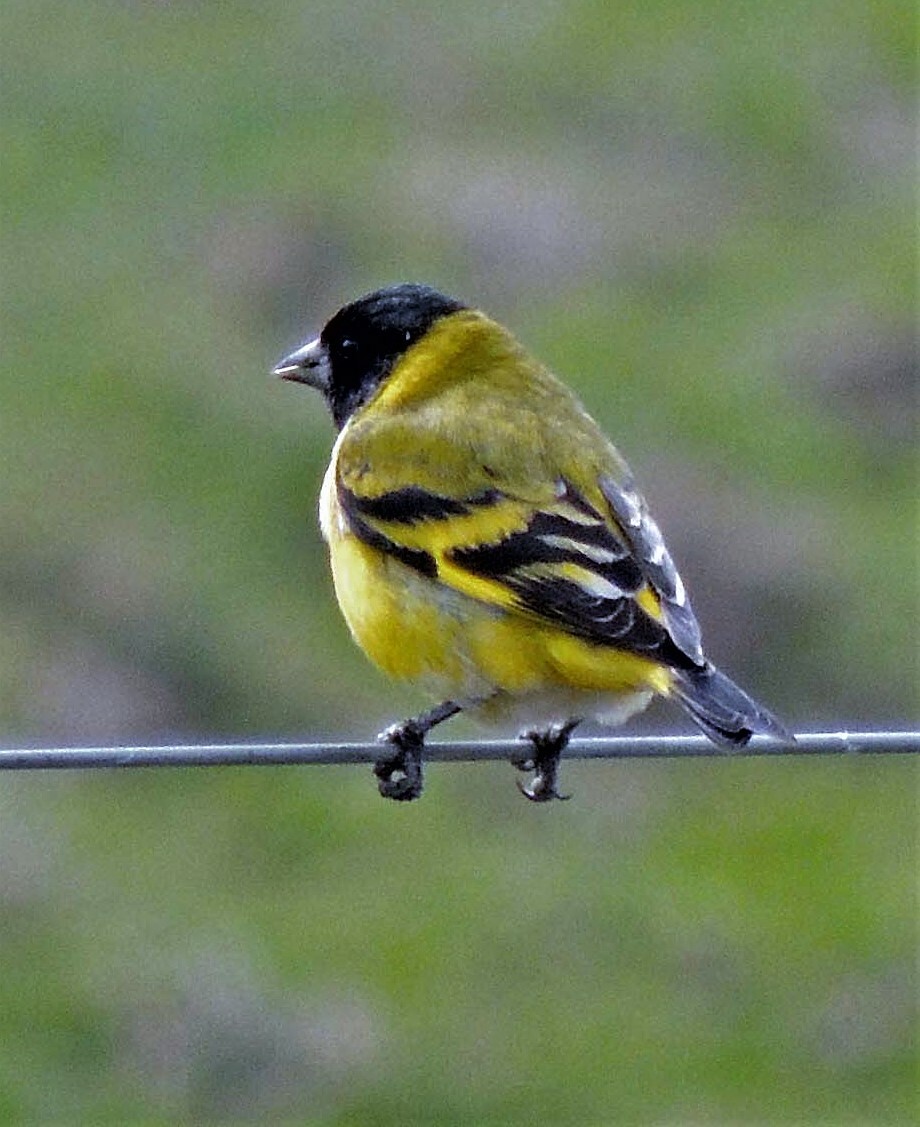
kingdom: Animalia
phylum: Chordata
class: Aves
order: Passeriformes
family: Fringillidae
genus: Spinus
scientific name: Spinus magellanicus
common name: Hooded siskin
